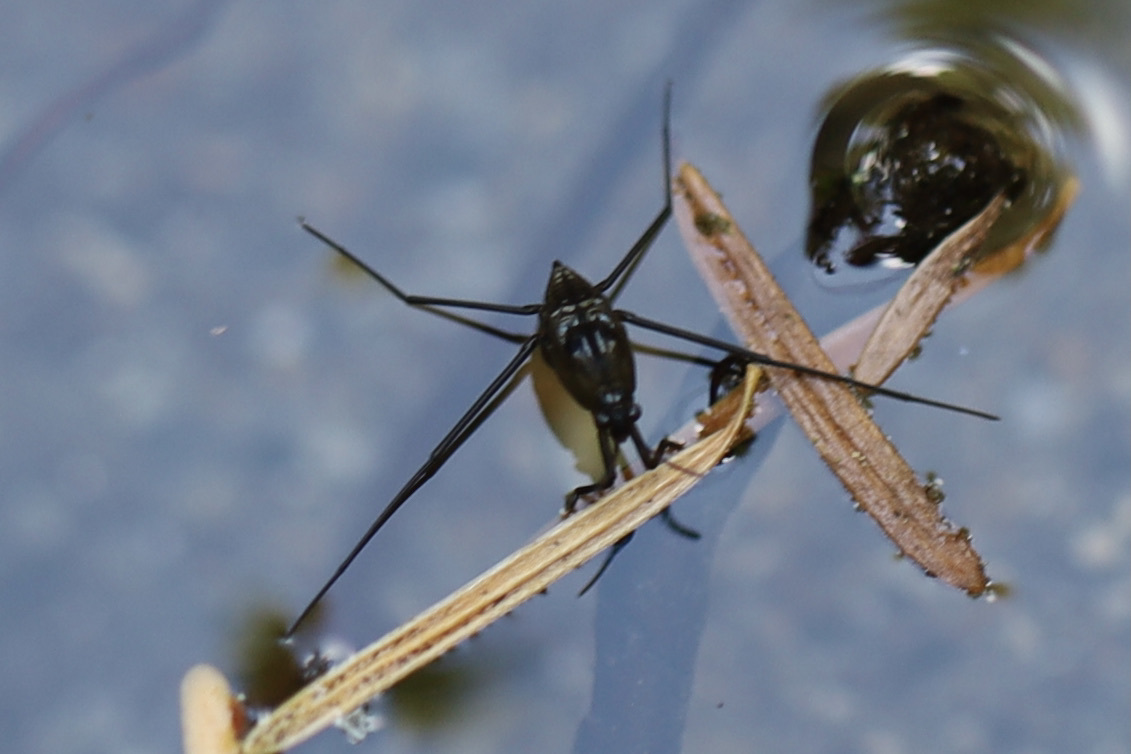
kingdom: Animalia
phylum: Arthropoda
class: Insecta
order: Hemiptera
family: Gerridae
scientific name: Gerridae
